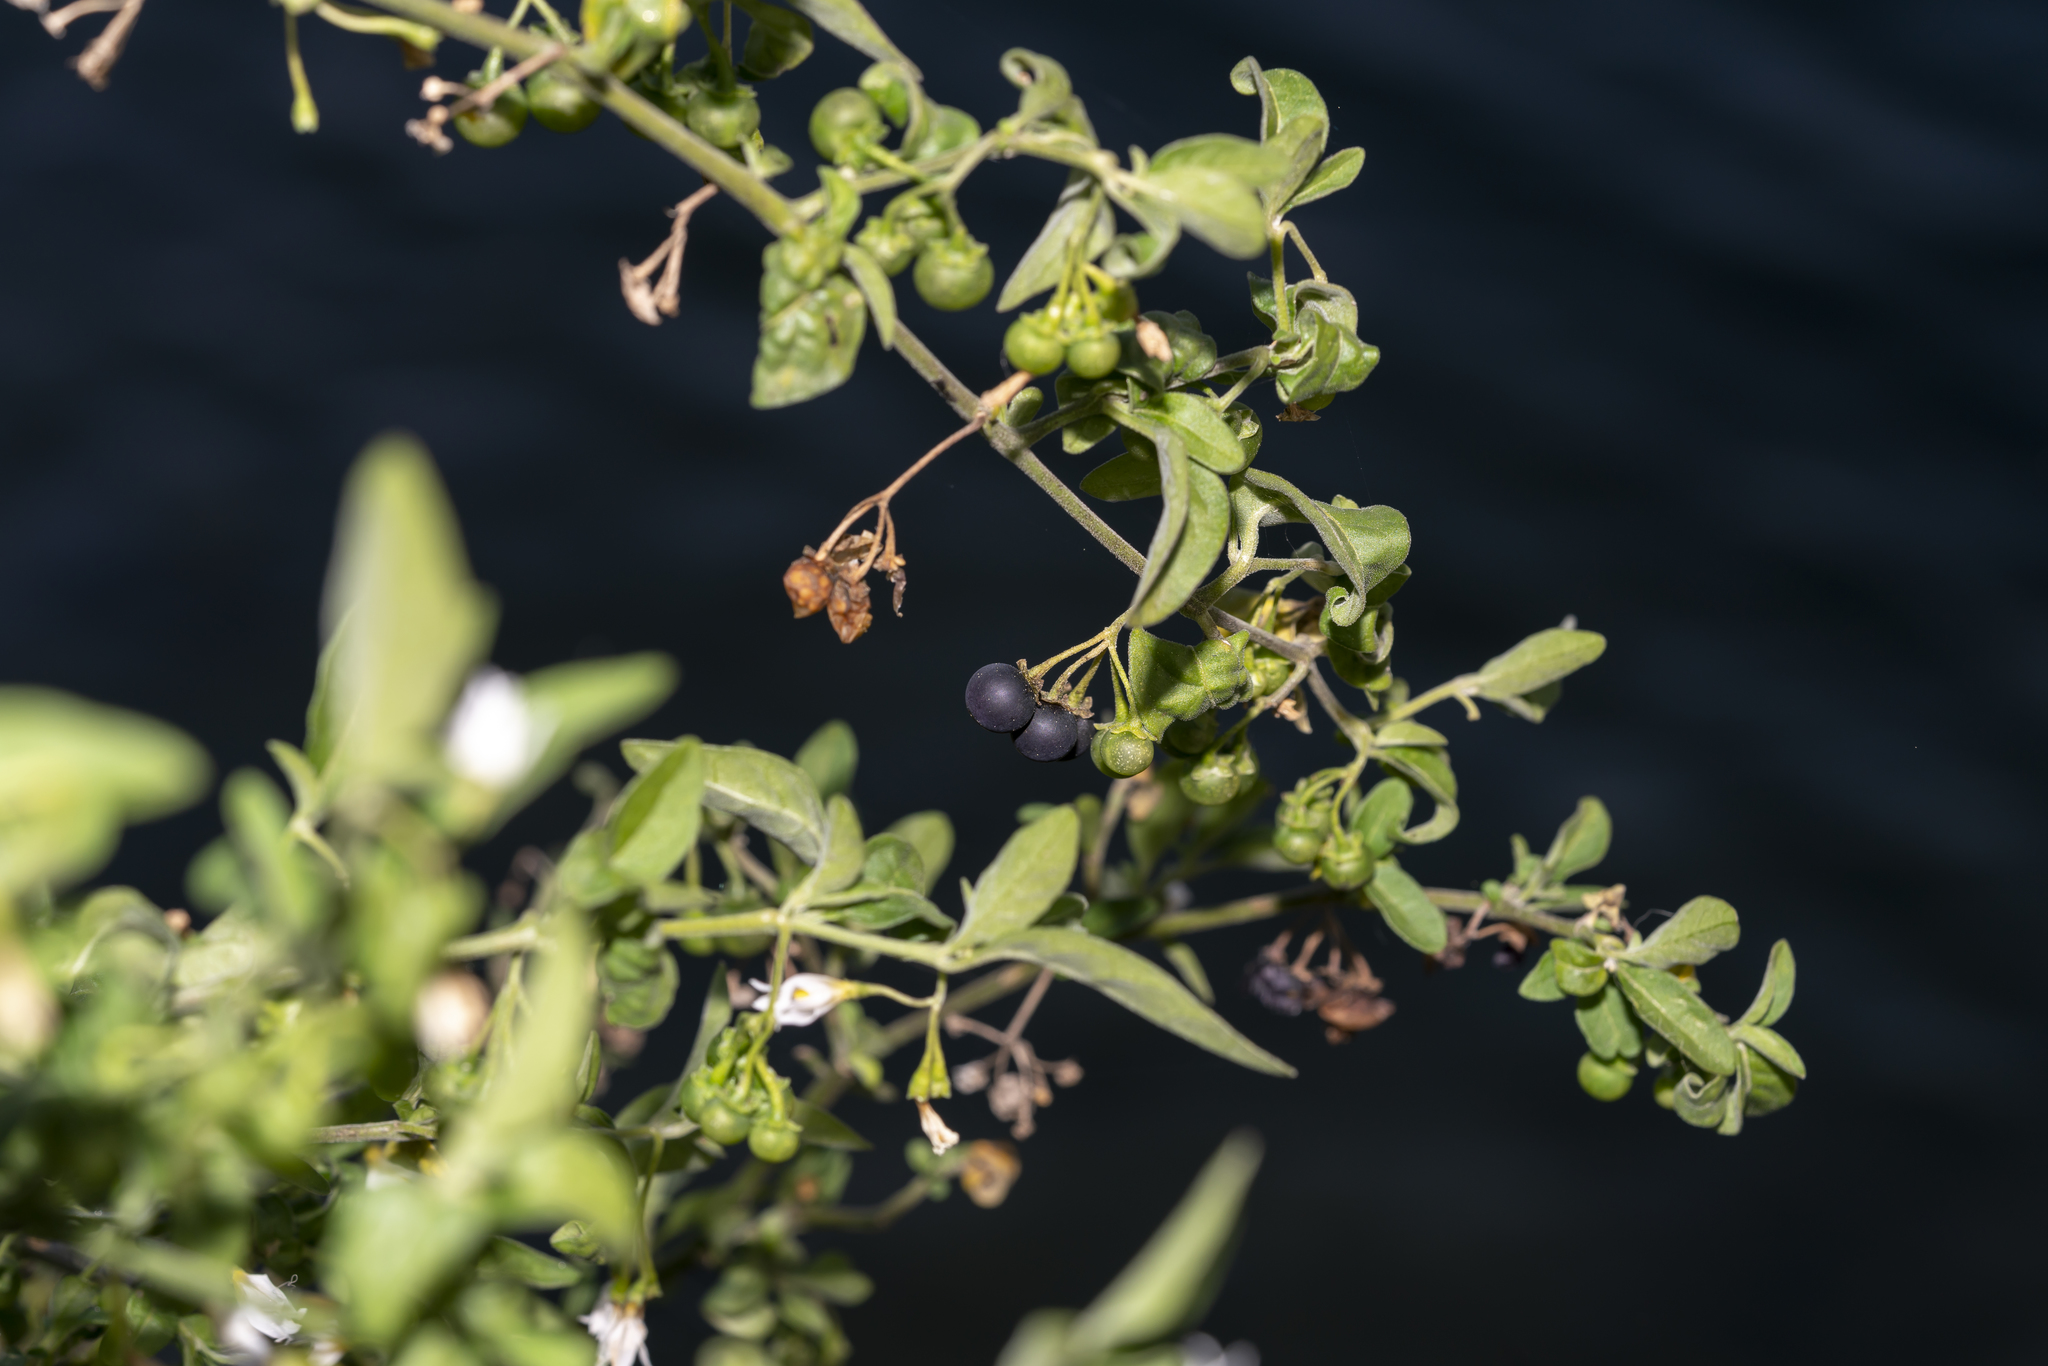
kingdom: Plantae
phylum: Tracheophyta
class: Magnoliopsida
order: Solanales
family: Solanaceae
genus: Solanum
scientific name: Solanum chenopodioides
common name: Tall nightshade
